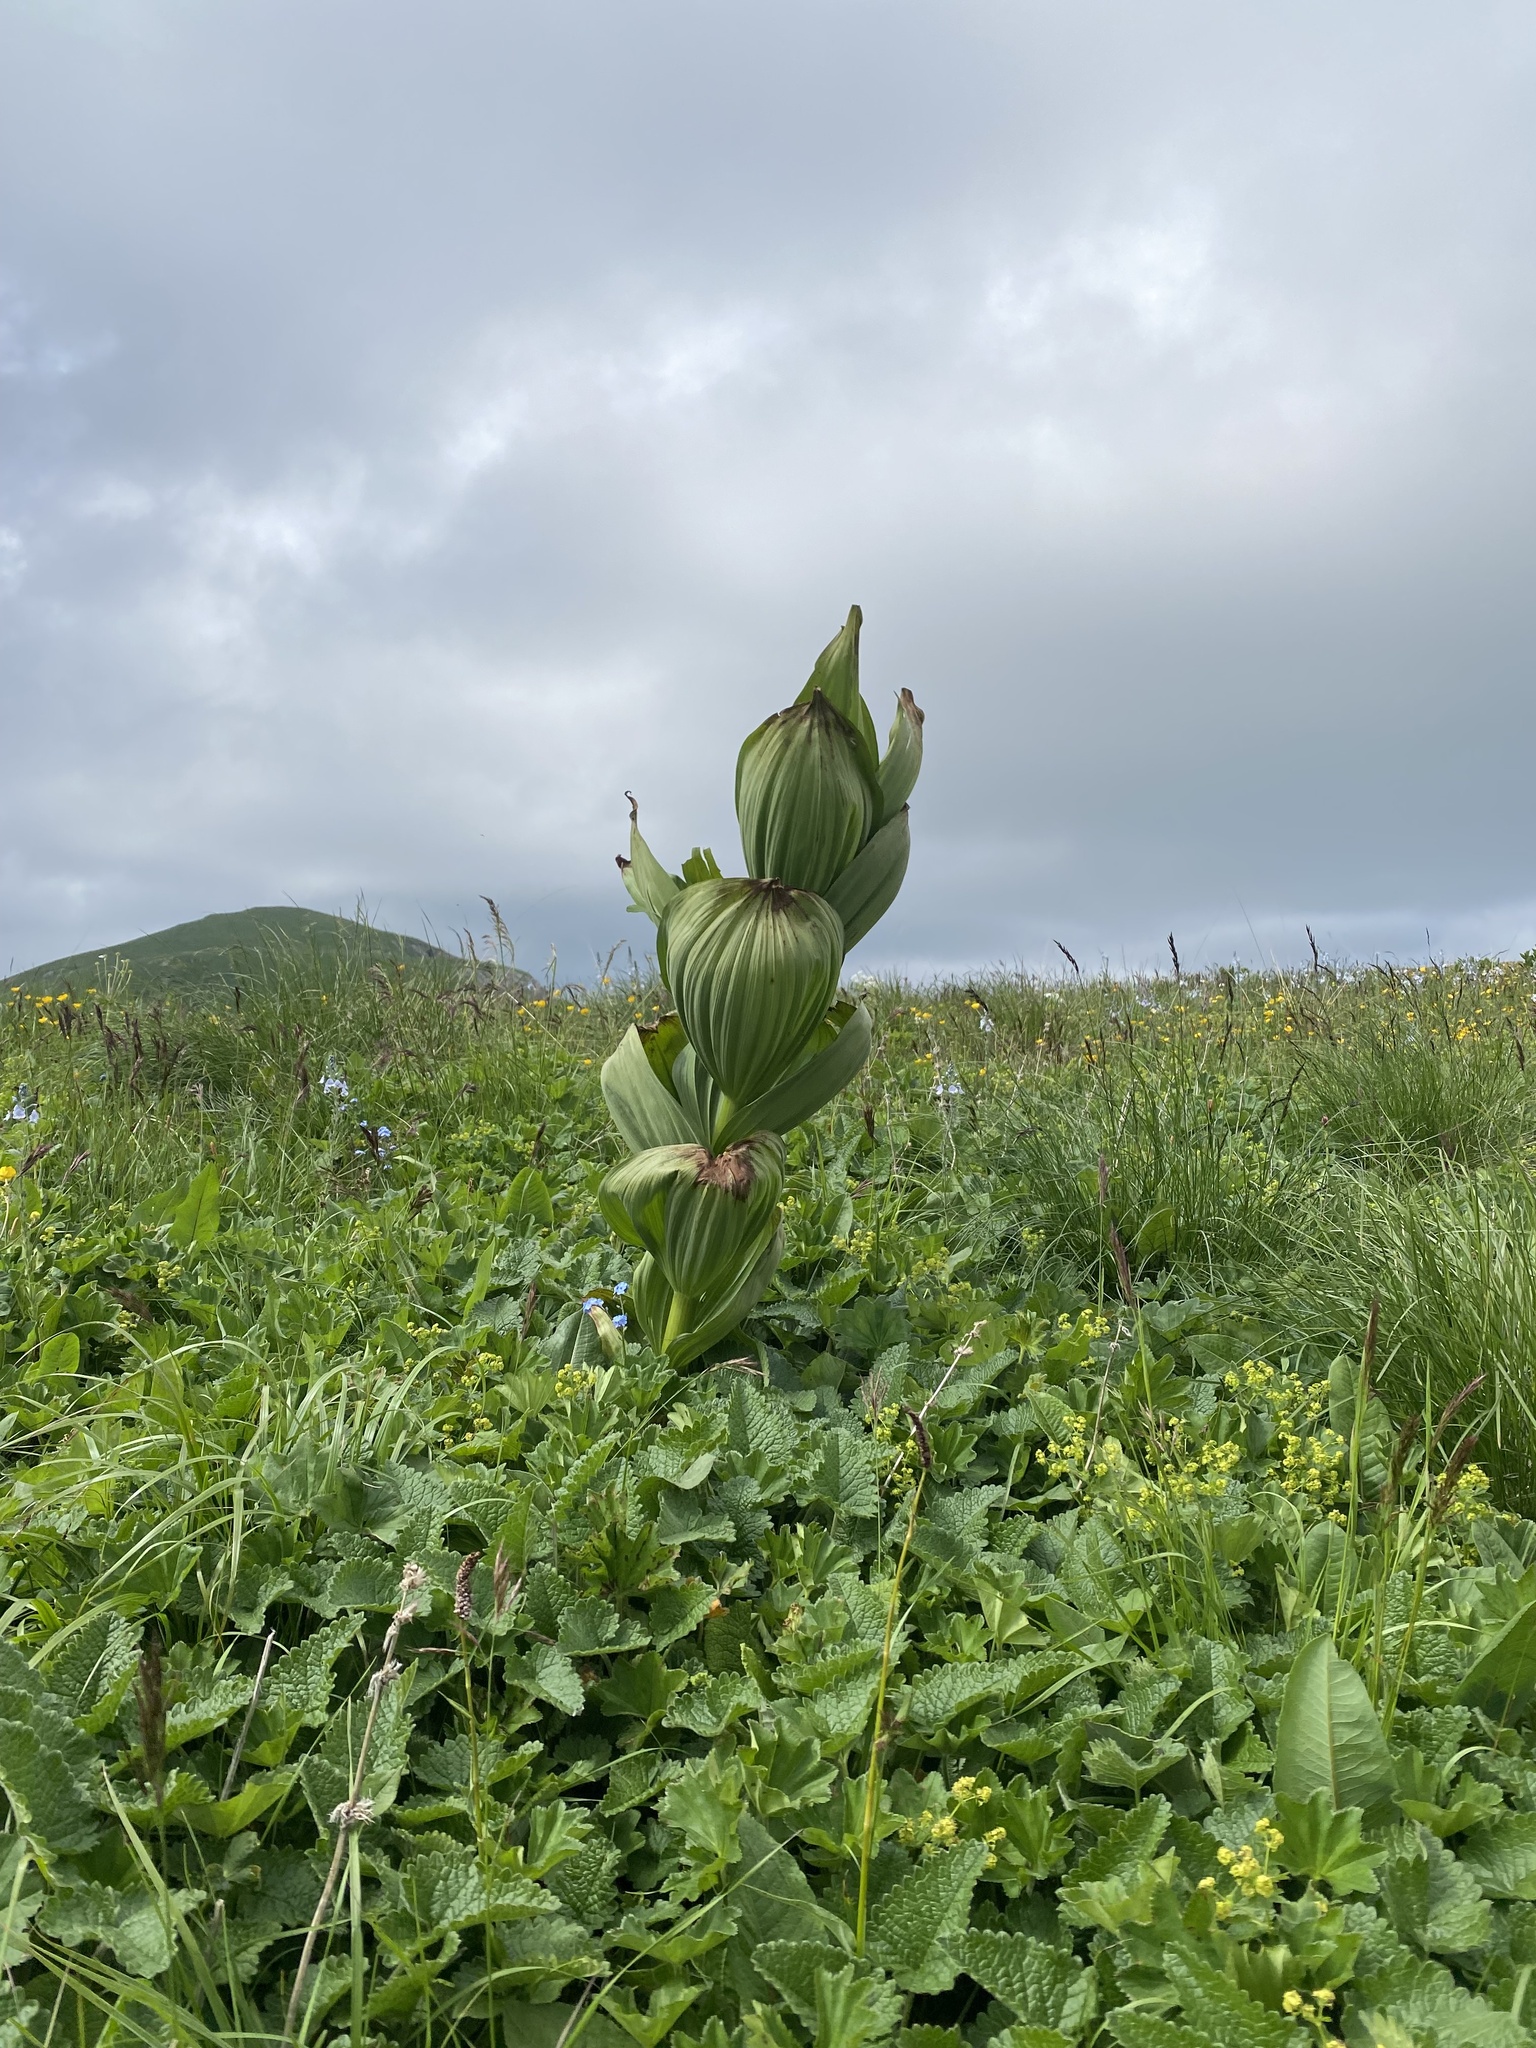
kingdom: Plantae
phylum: Tracheophyta
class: Liliopsida
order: Liliales
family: Melanthiaceae
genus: Veratrum
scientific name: Veratrum lobelianum
